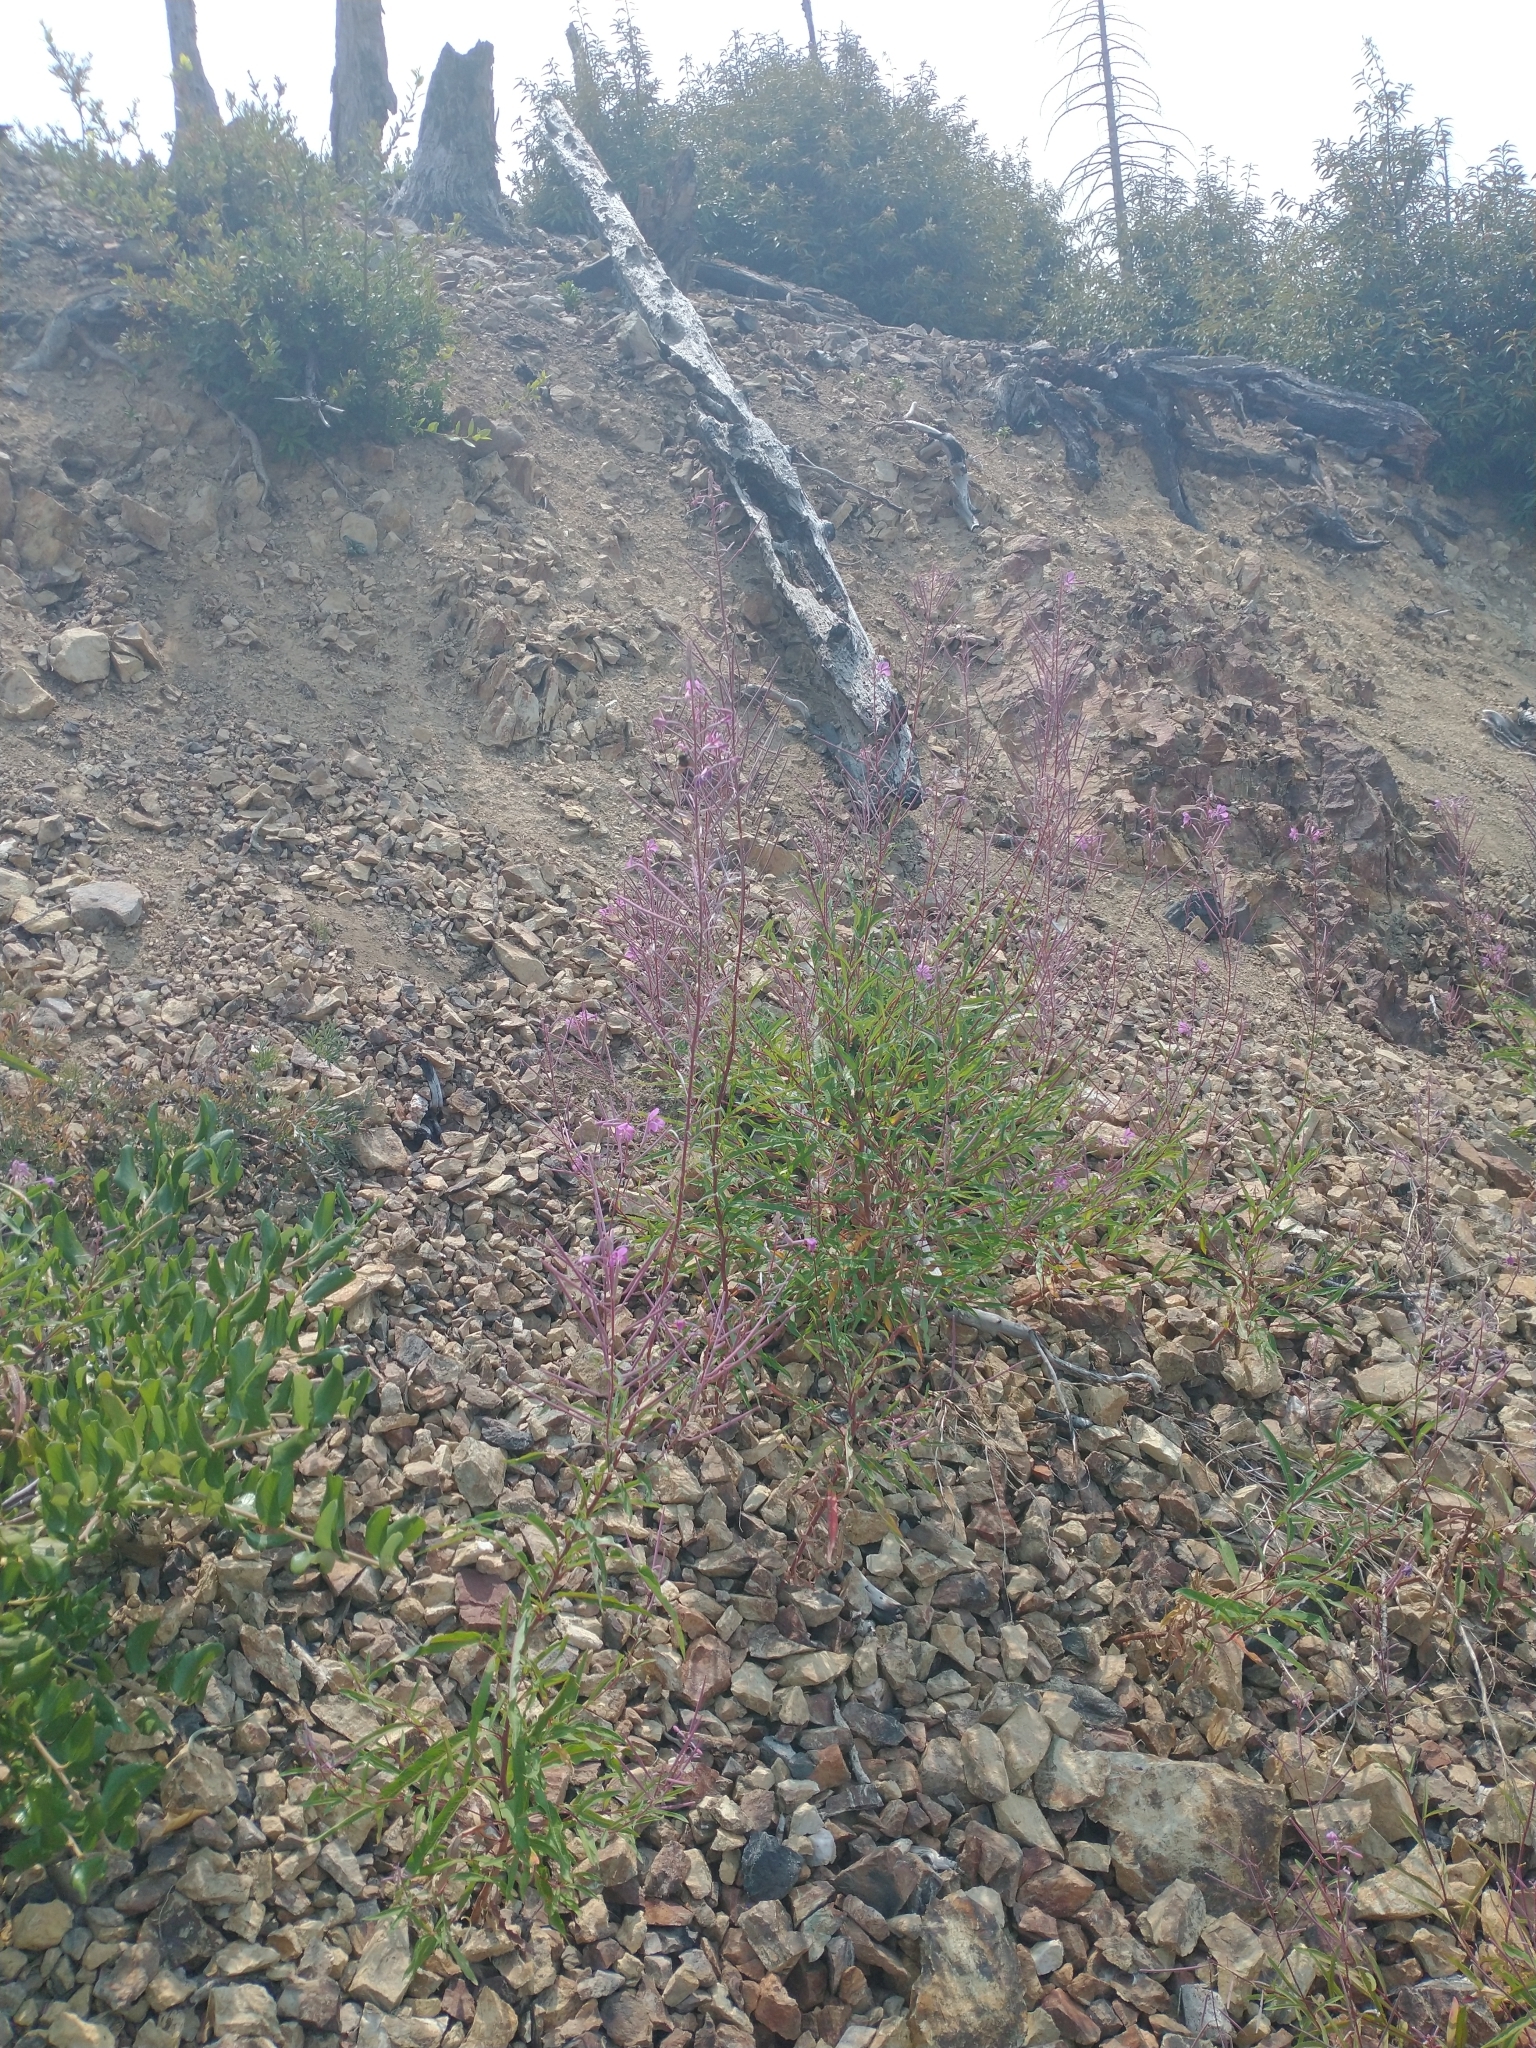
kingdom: Plantae
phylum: Tracheophyta
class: Magnoliopsida
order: Myrtales
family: Onagraceae
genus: Chamaenerion
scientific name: Chamaenerion angustifolium
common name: Fireweed
